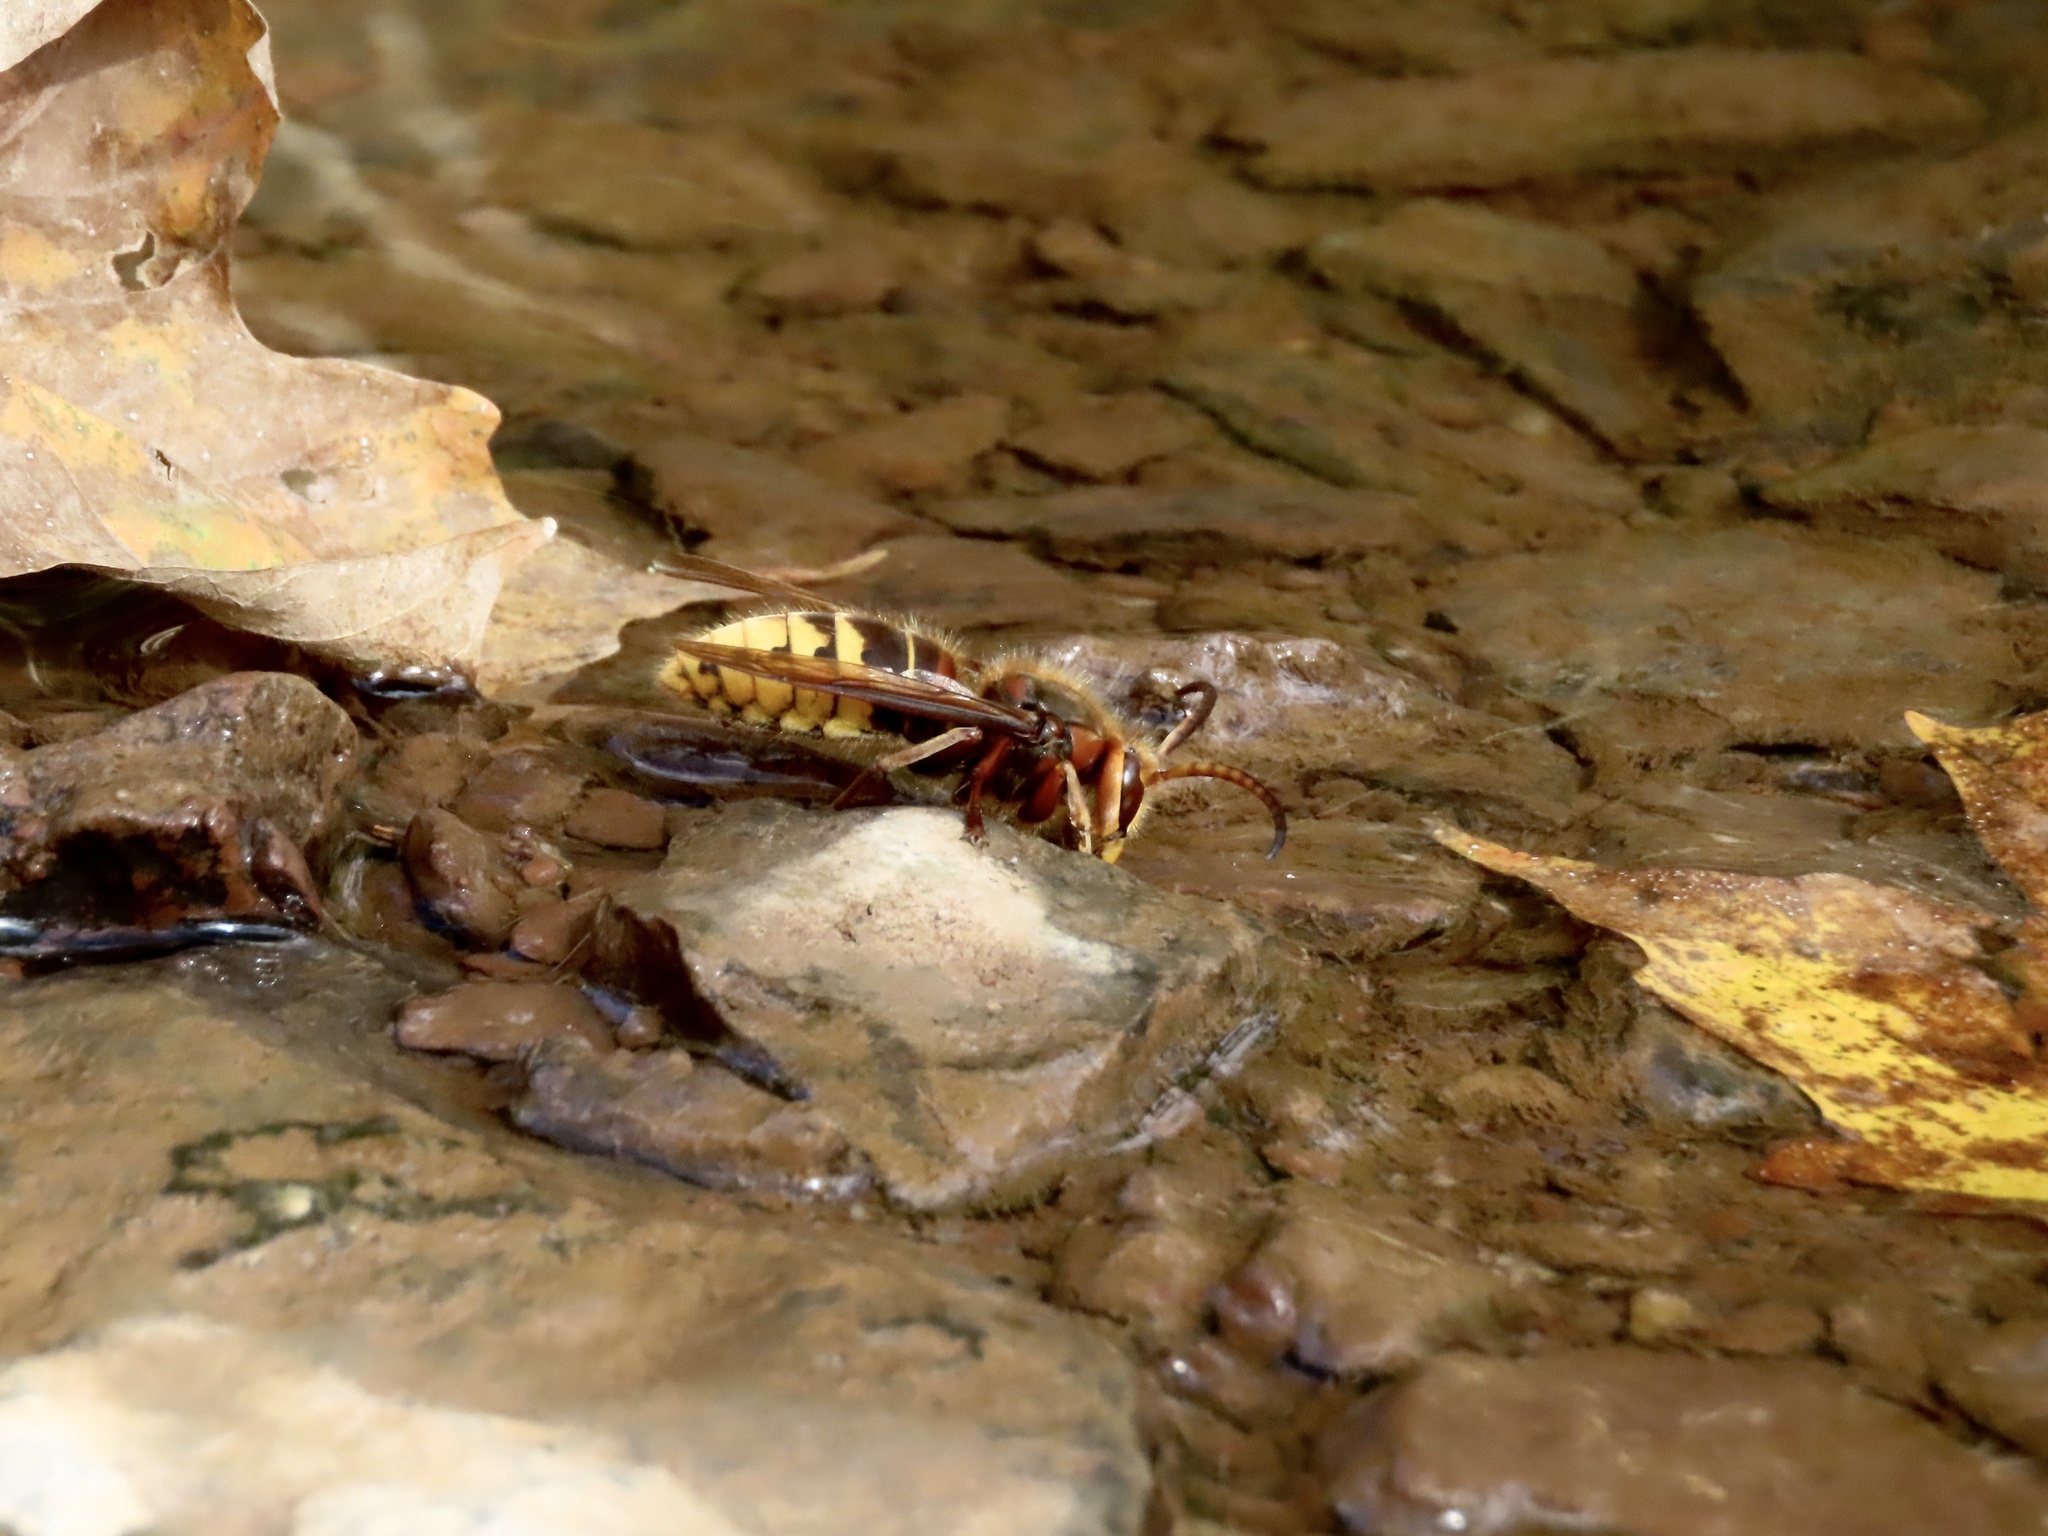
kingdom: Animalia
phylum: Arthropoda
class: Insecta
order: Hymenoptera
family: Vespidae
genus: Vespa
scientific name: Vespa crabro
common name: Hornet
